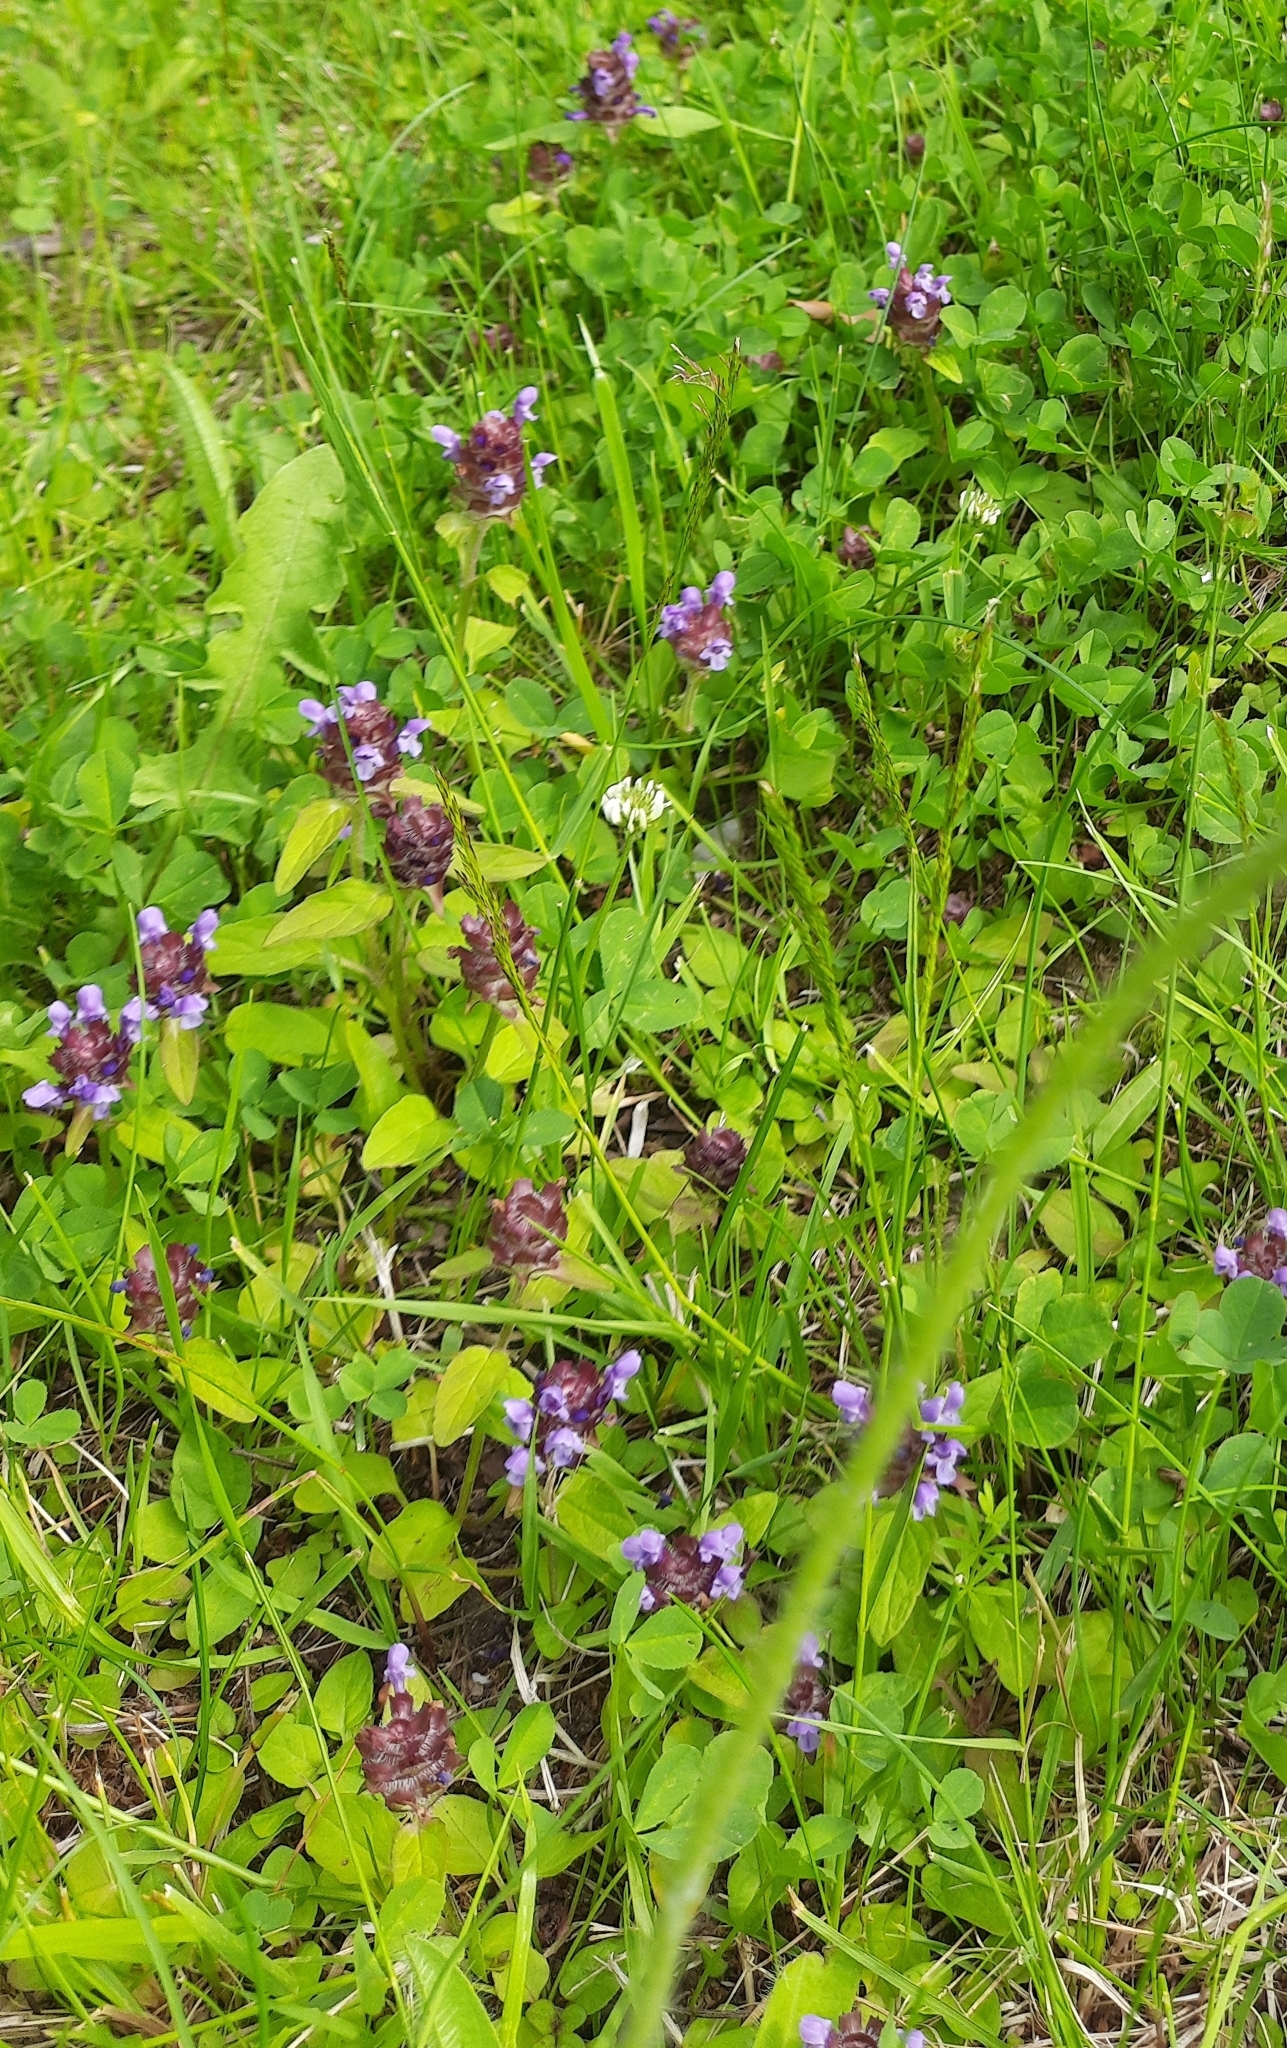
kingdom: Plantae
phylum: Tracheophyta
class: Magnoliopsida
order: Lamiales
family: Lamiaceae
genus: Prunella
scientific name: Prunella vulgaris
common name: Heal-all
